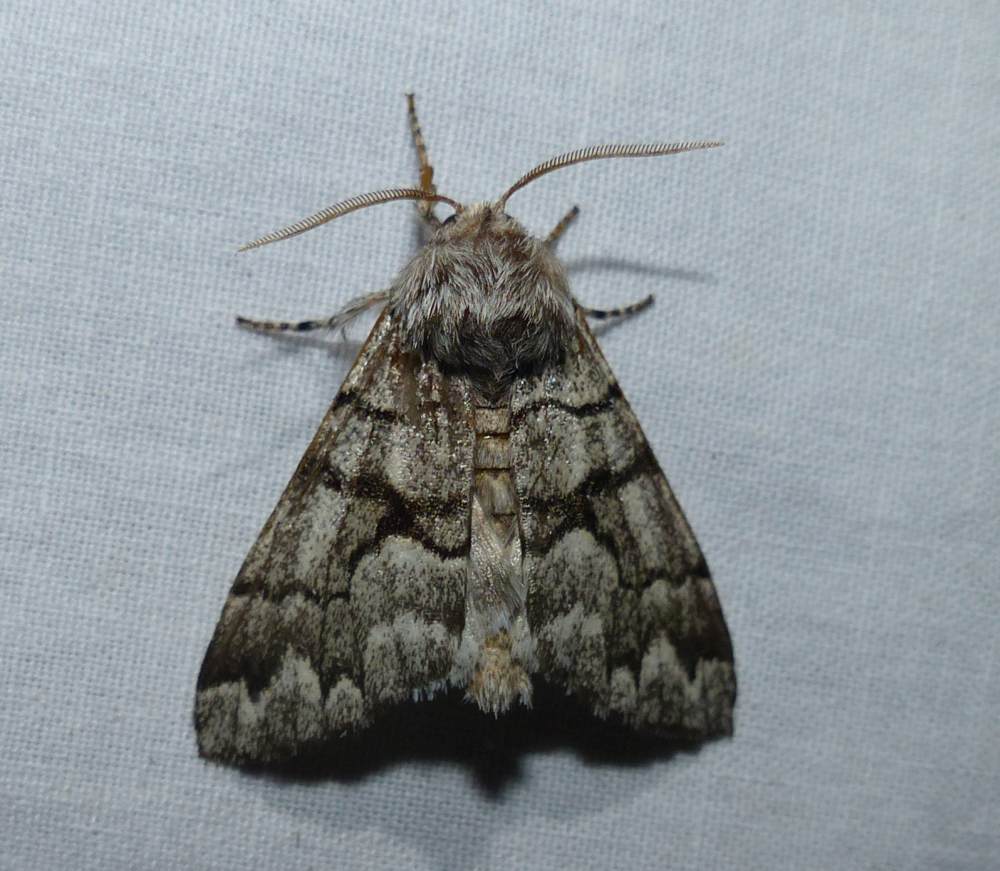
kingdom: Animalia
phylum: Arthropoda
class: Insecta
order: Lepidoptera
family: Noctuidae
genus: Panthea
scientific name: Panthea furcilla
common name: Eastern panthea moth
